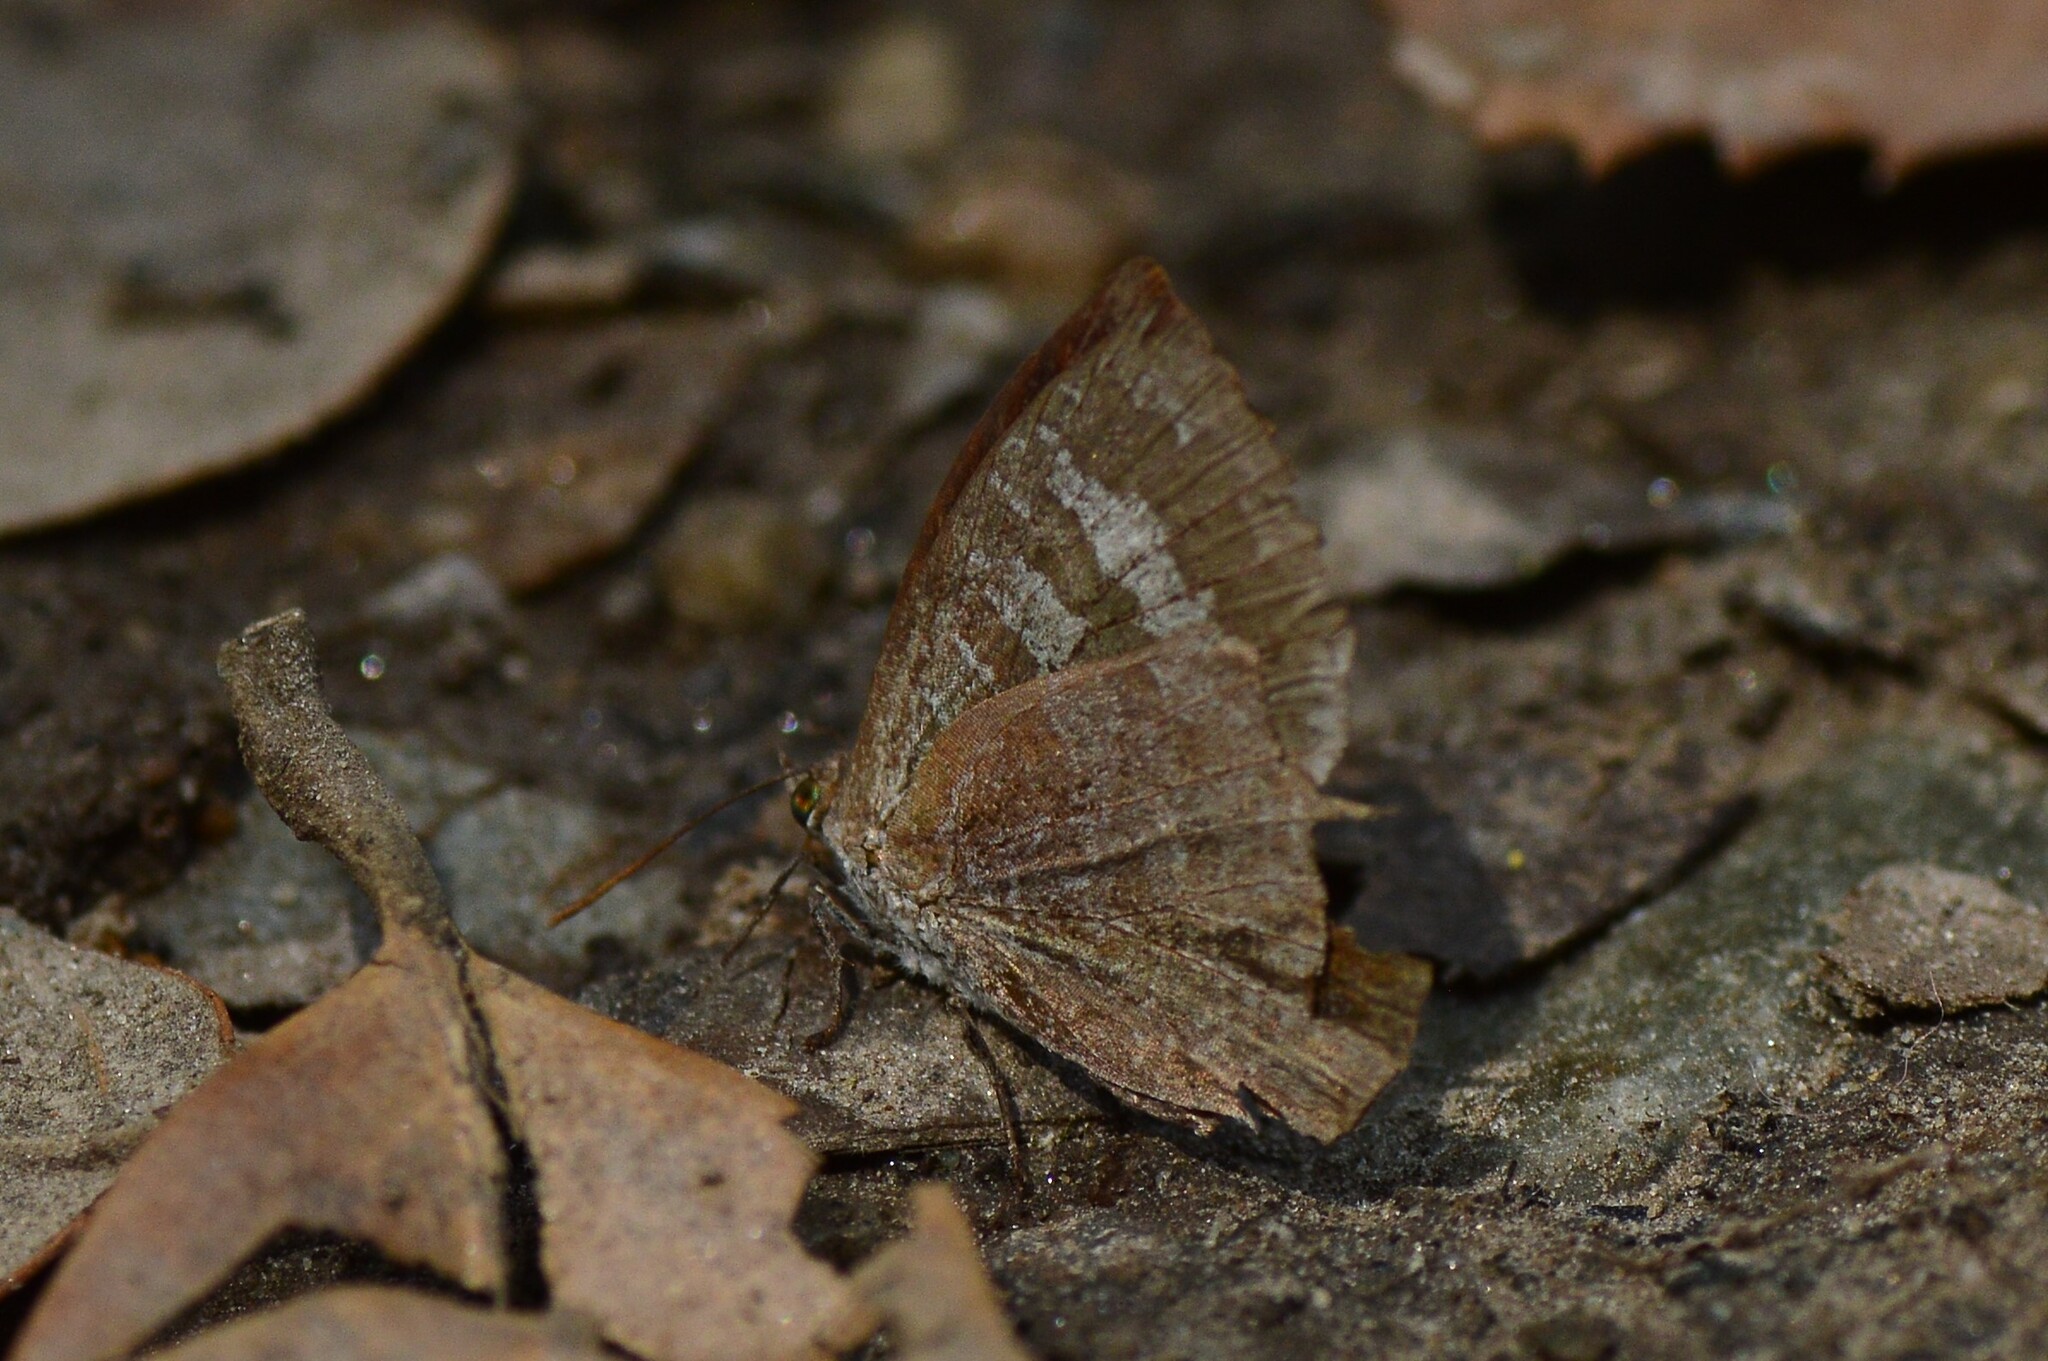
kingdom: Animalia
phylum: Arthropoda
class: Insecta
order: Lepidoptera
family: Lycaenidae
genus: Arhopala
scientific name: Arhopala ganesa
